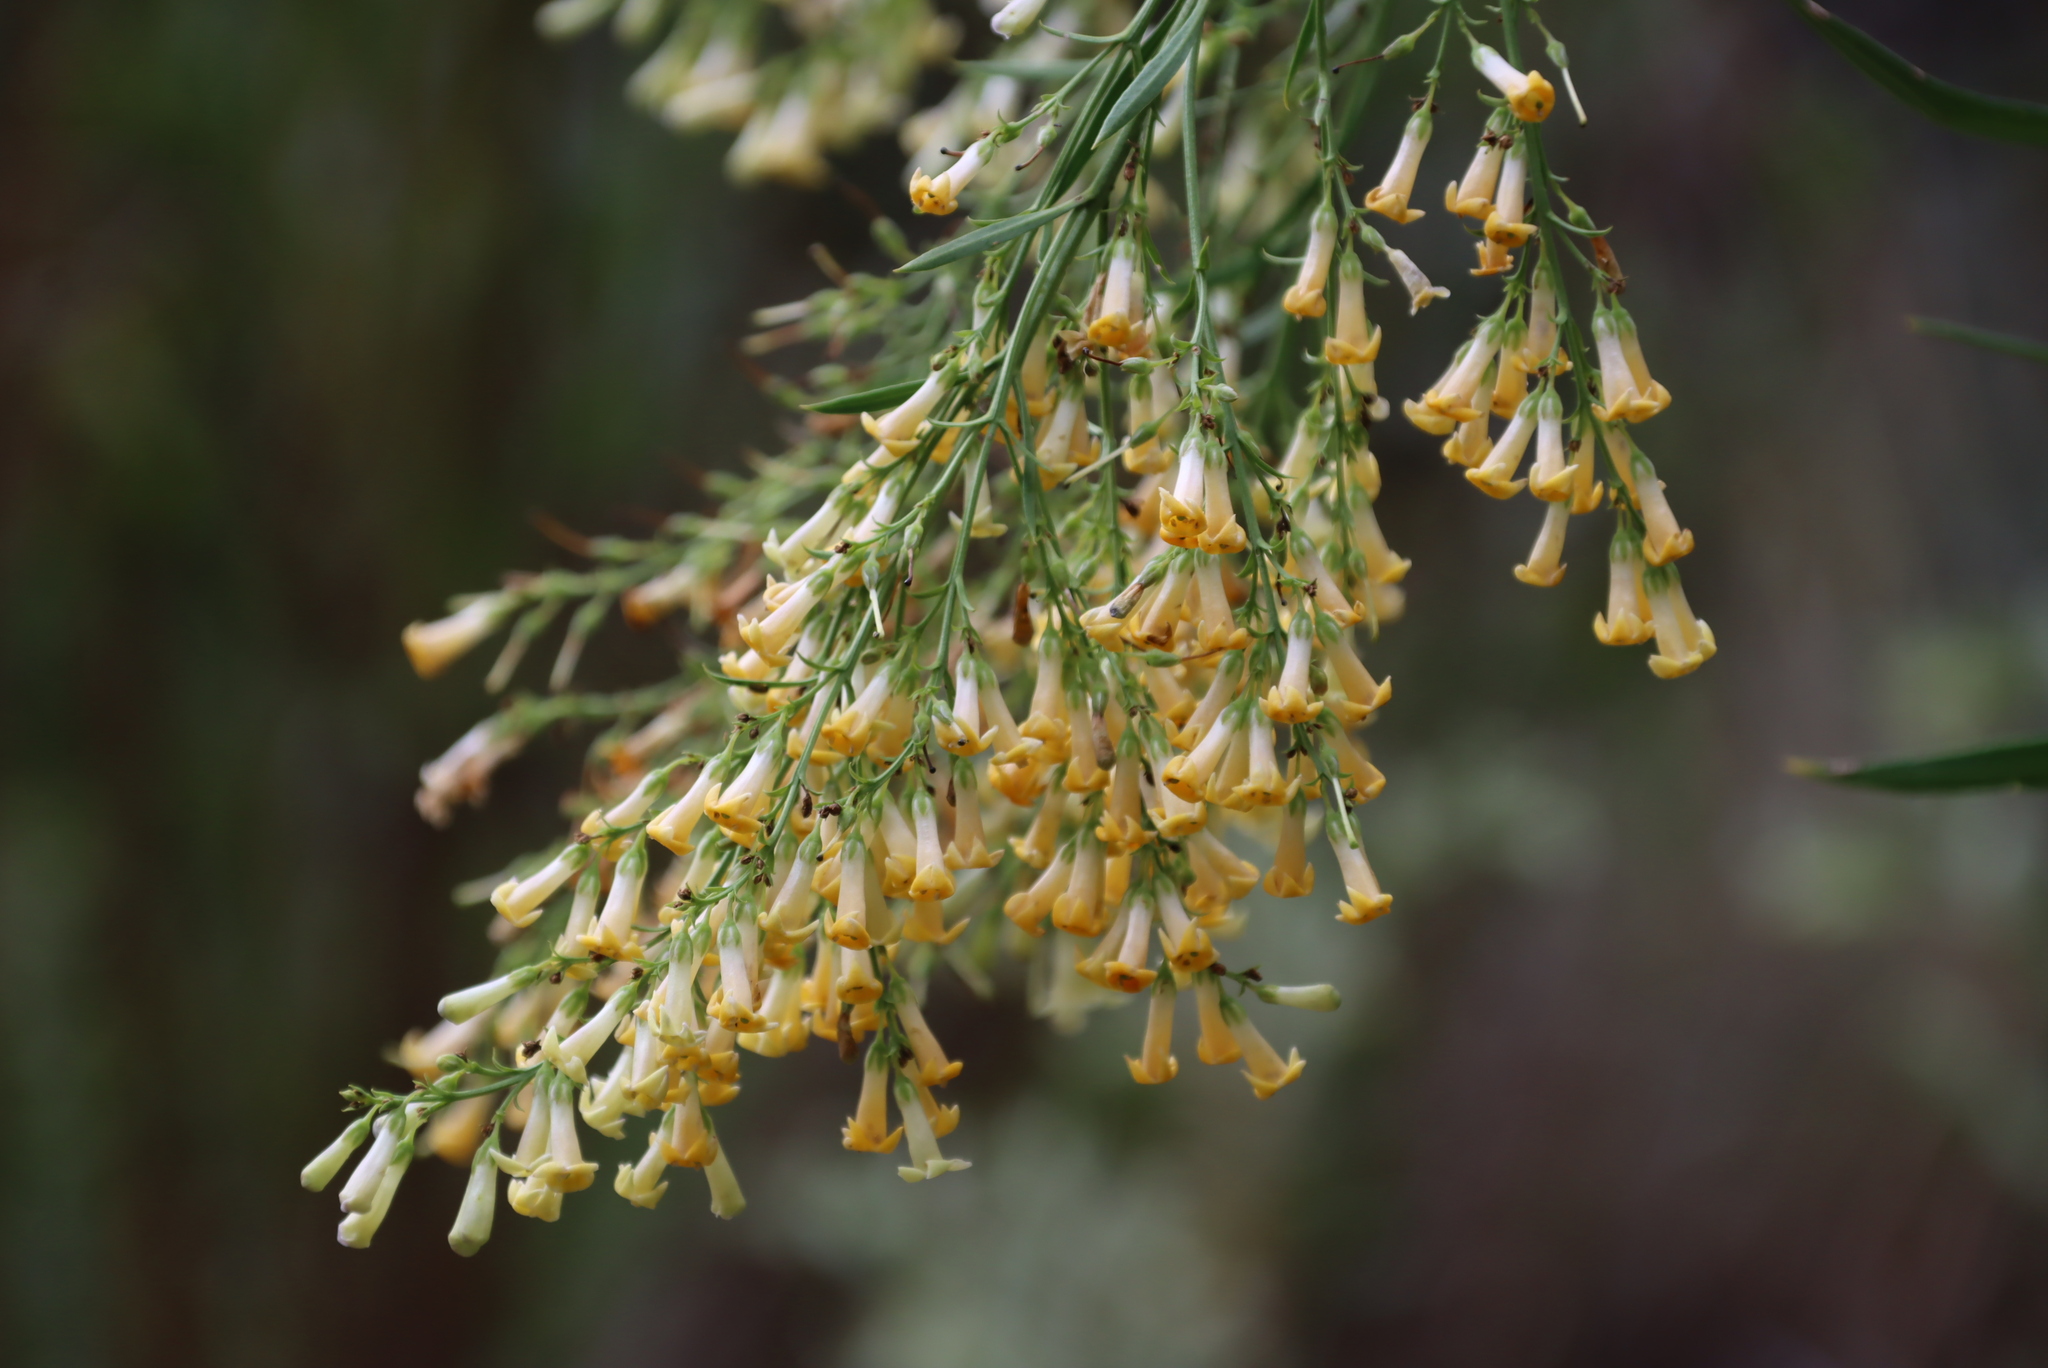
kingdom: Plantae
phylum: Tracheophyta
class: Magnoliopsida
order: Lamiales
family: Scrophulariaceae
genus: Freylinia
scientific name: Freylinia lanceolata
